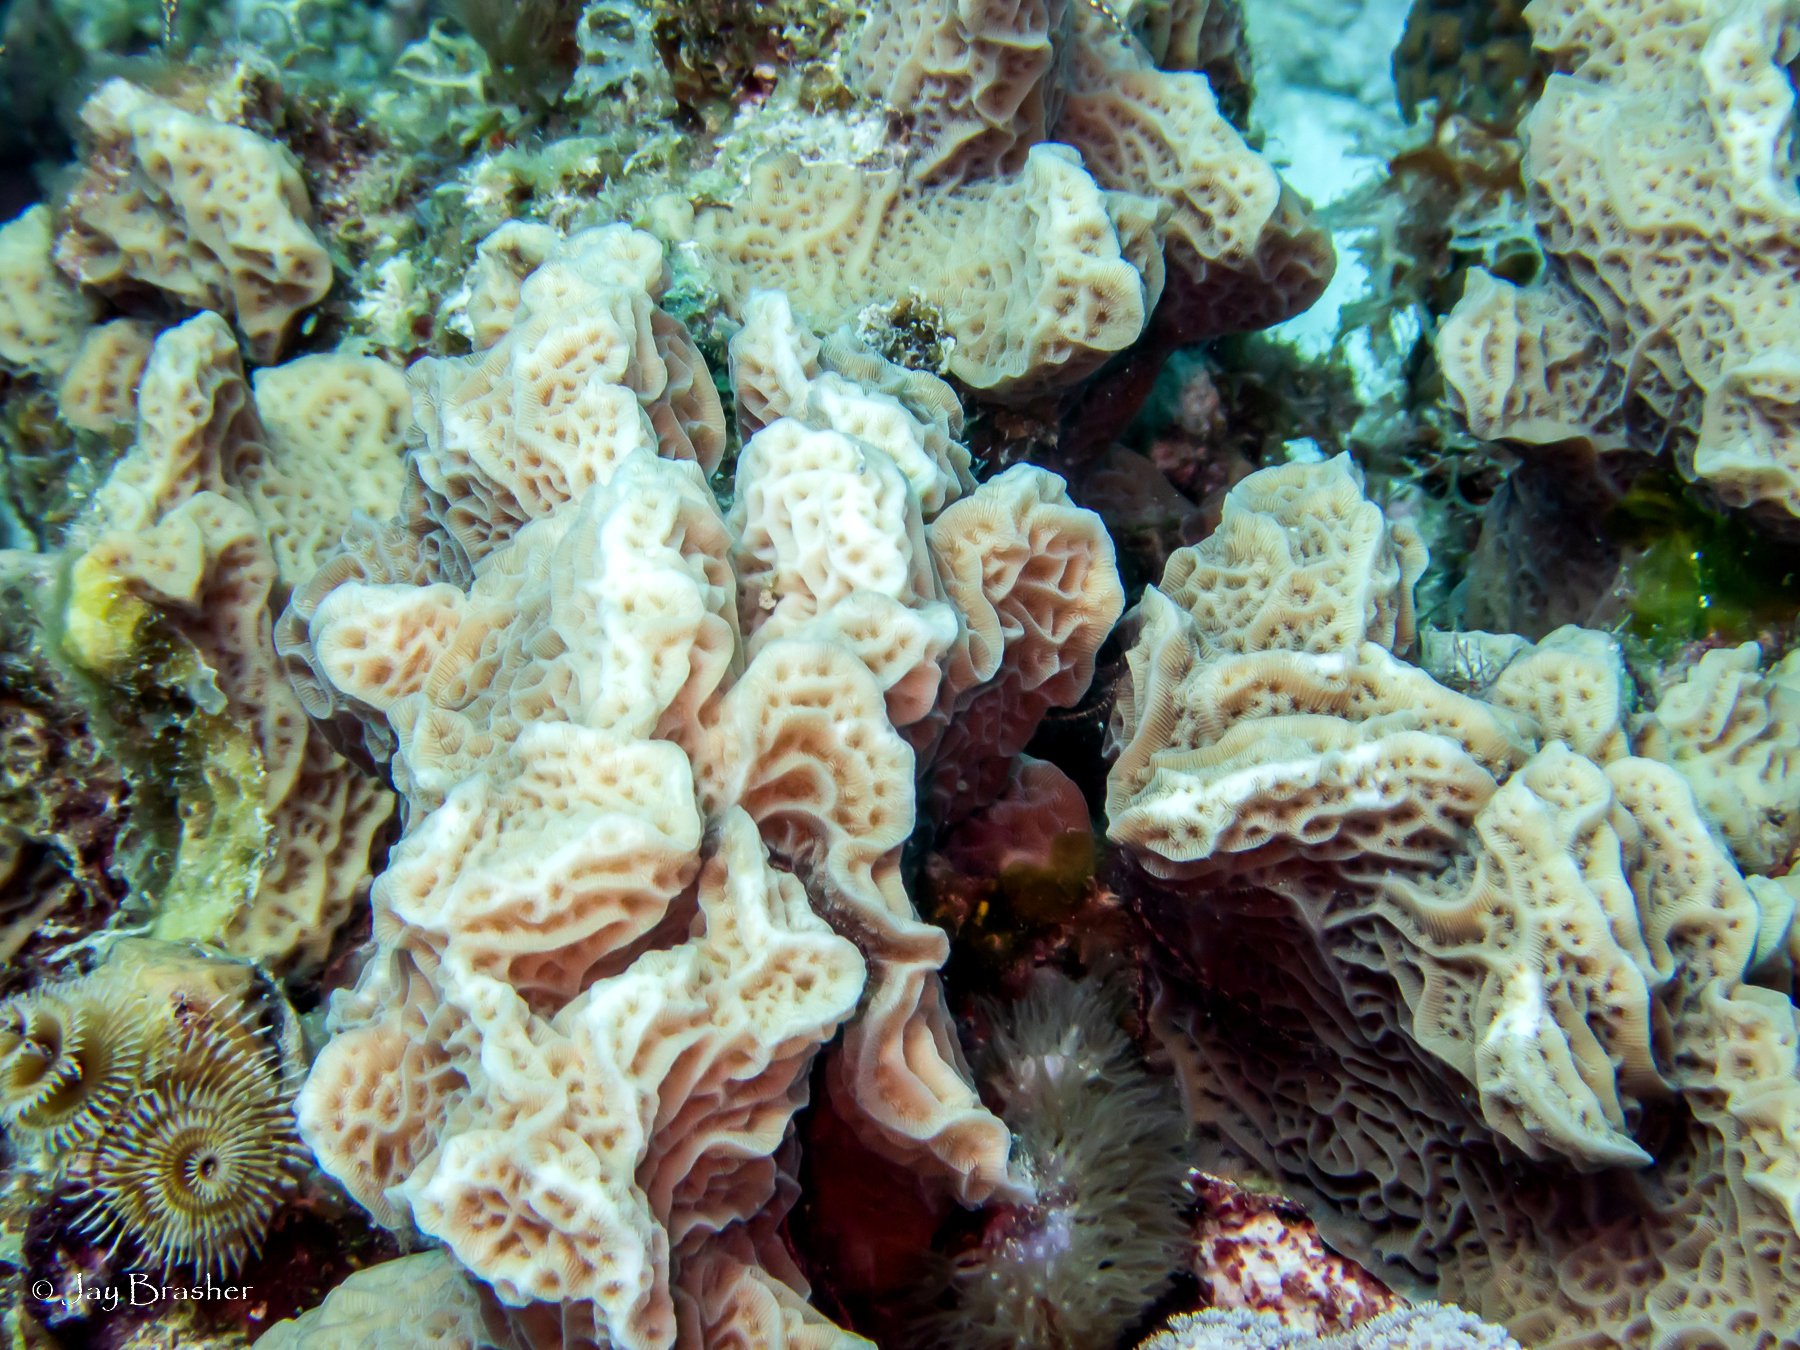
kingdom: Animalia
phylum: Cnidaria
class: Anthozoa
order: Scleractinia
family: Agariciidae
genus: Agaricia
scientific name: Agaricia agaricites
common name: Lettuce coral
